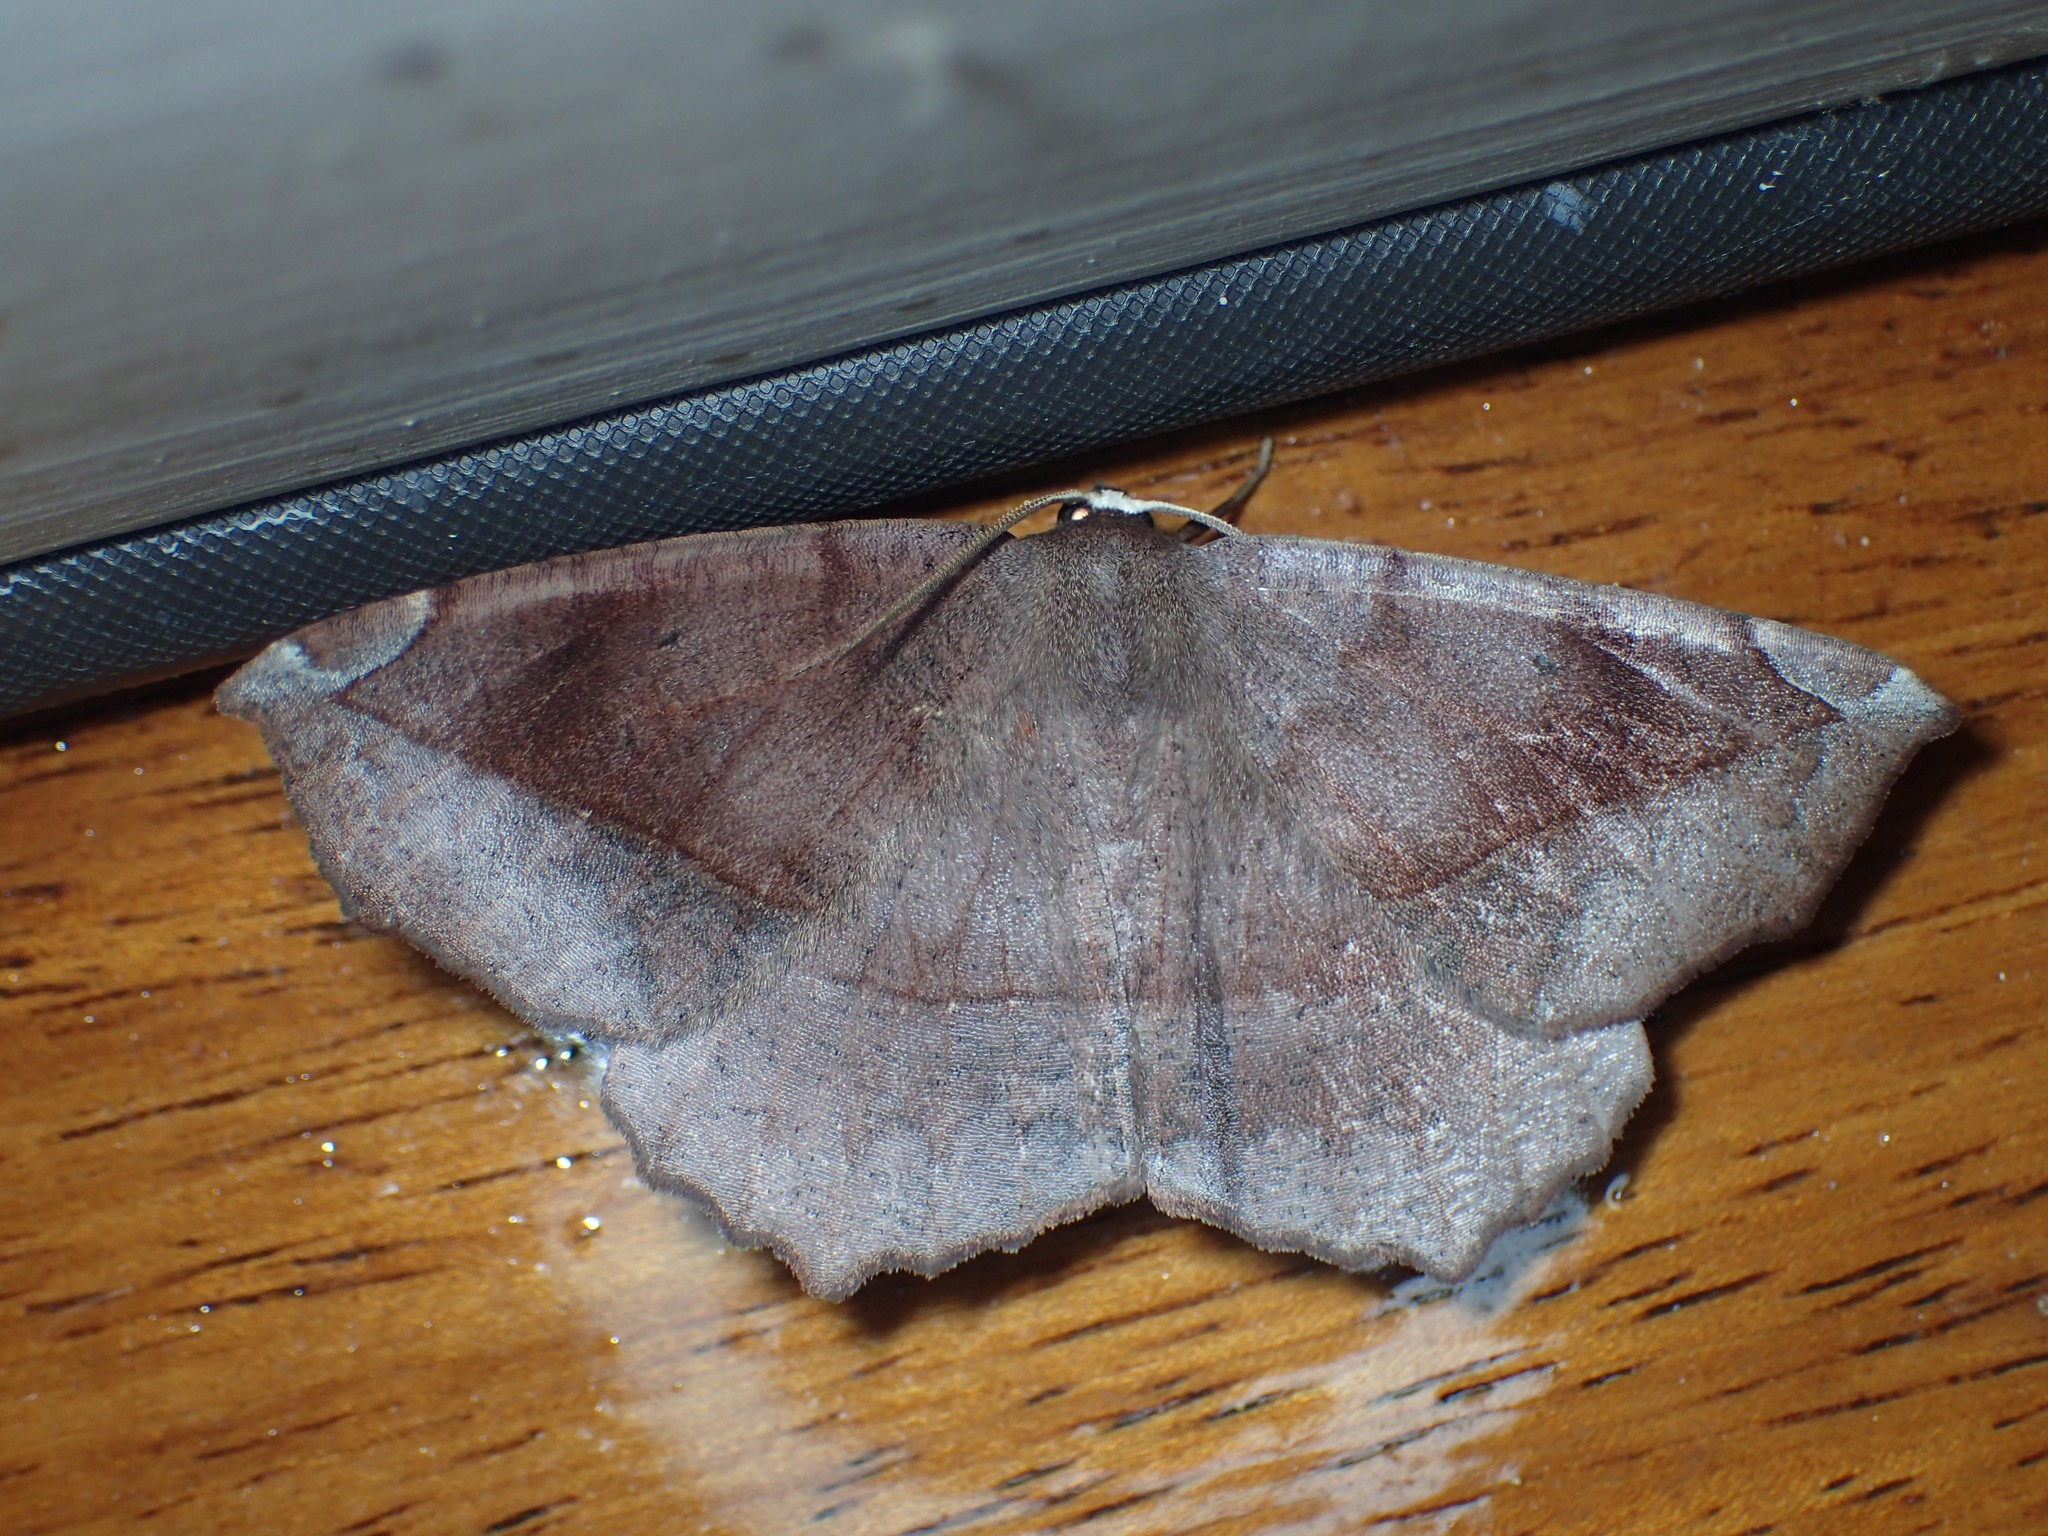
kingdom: Animalia
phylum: Arthropoda
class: Insecta
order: Lepidoptera
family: Geometridae
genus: Eutrapela
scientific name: Eutrapela clemataria
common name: Curved-toothed geometer
